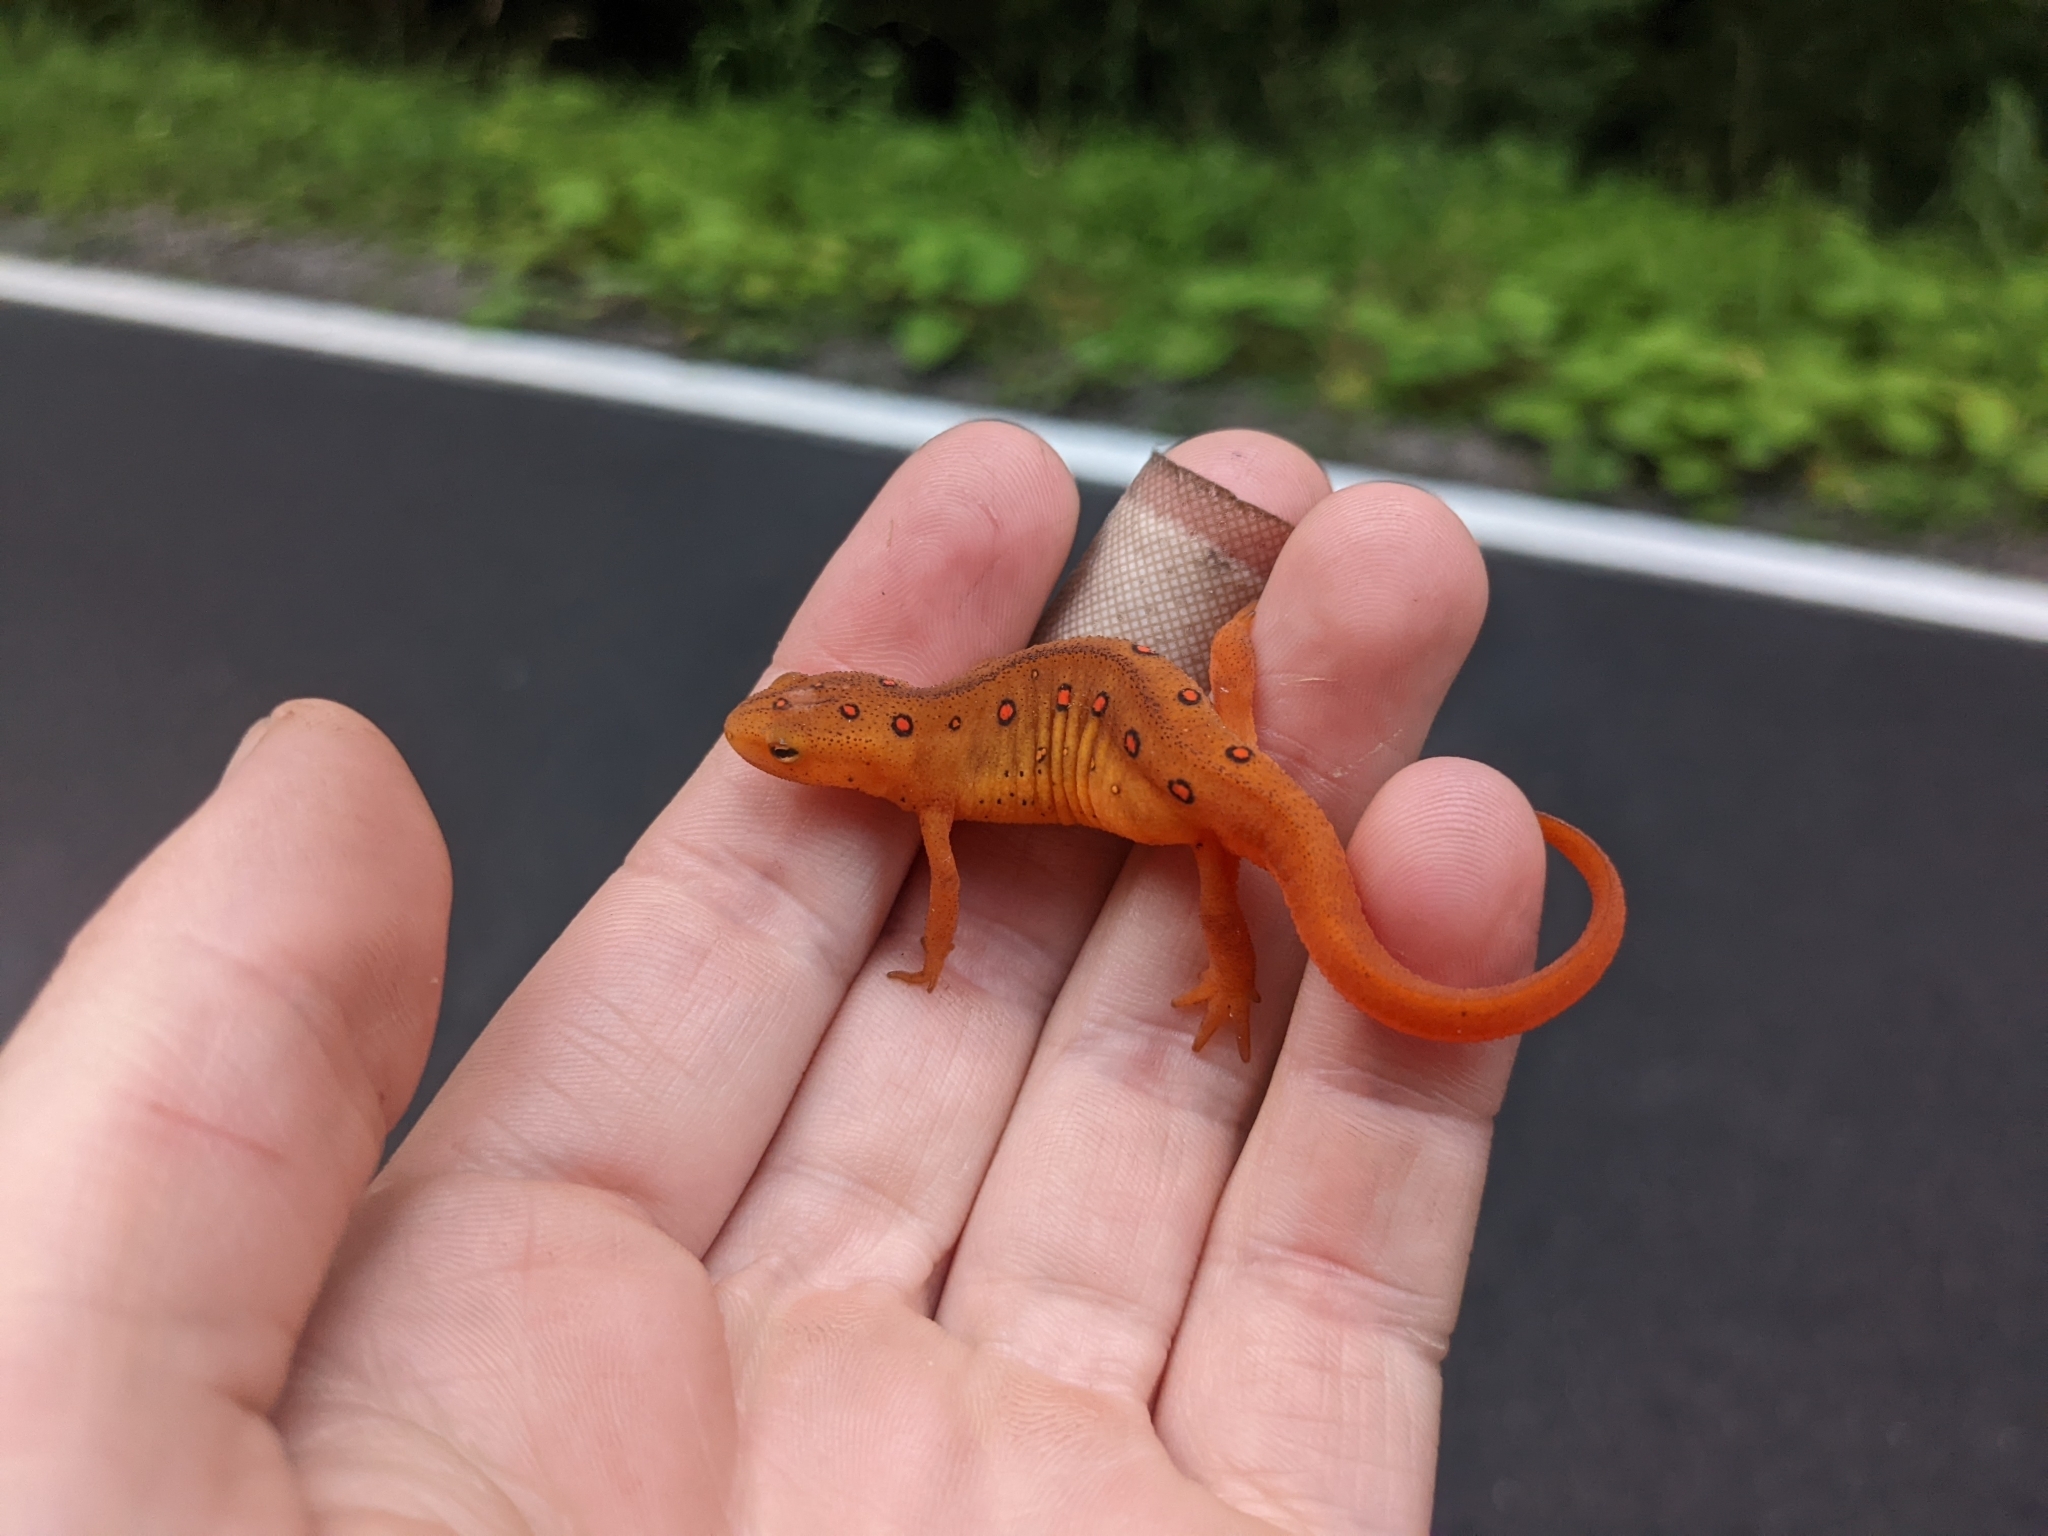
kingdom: Animalia
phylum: Chordata
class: Amphibia
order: Caudata
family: Salamandridae
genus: Notophthalmus
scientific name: Notophthalmus viridescens
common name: Eastern newt
